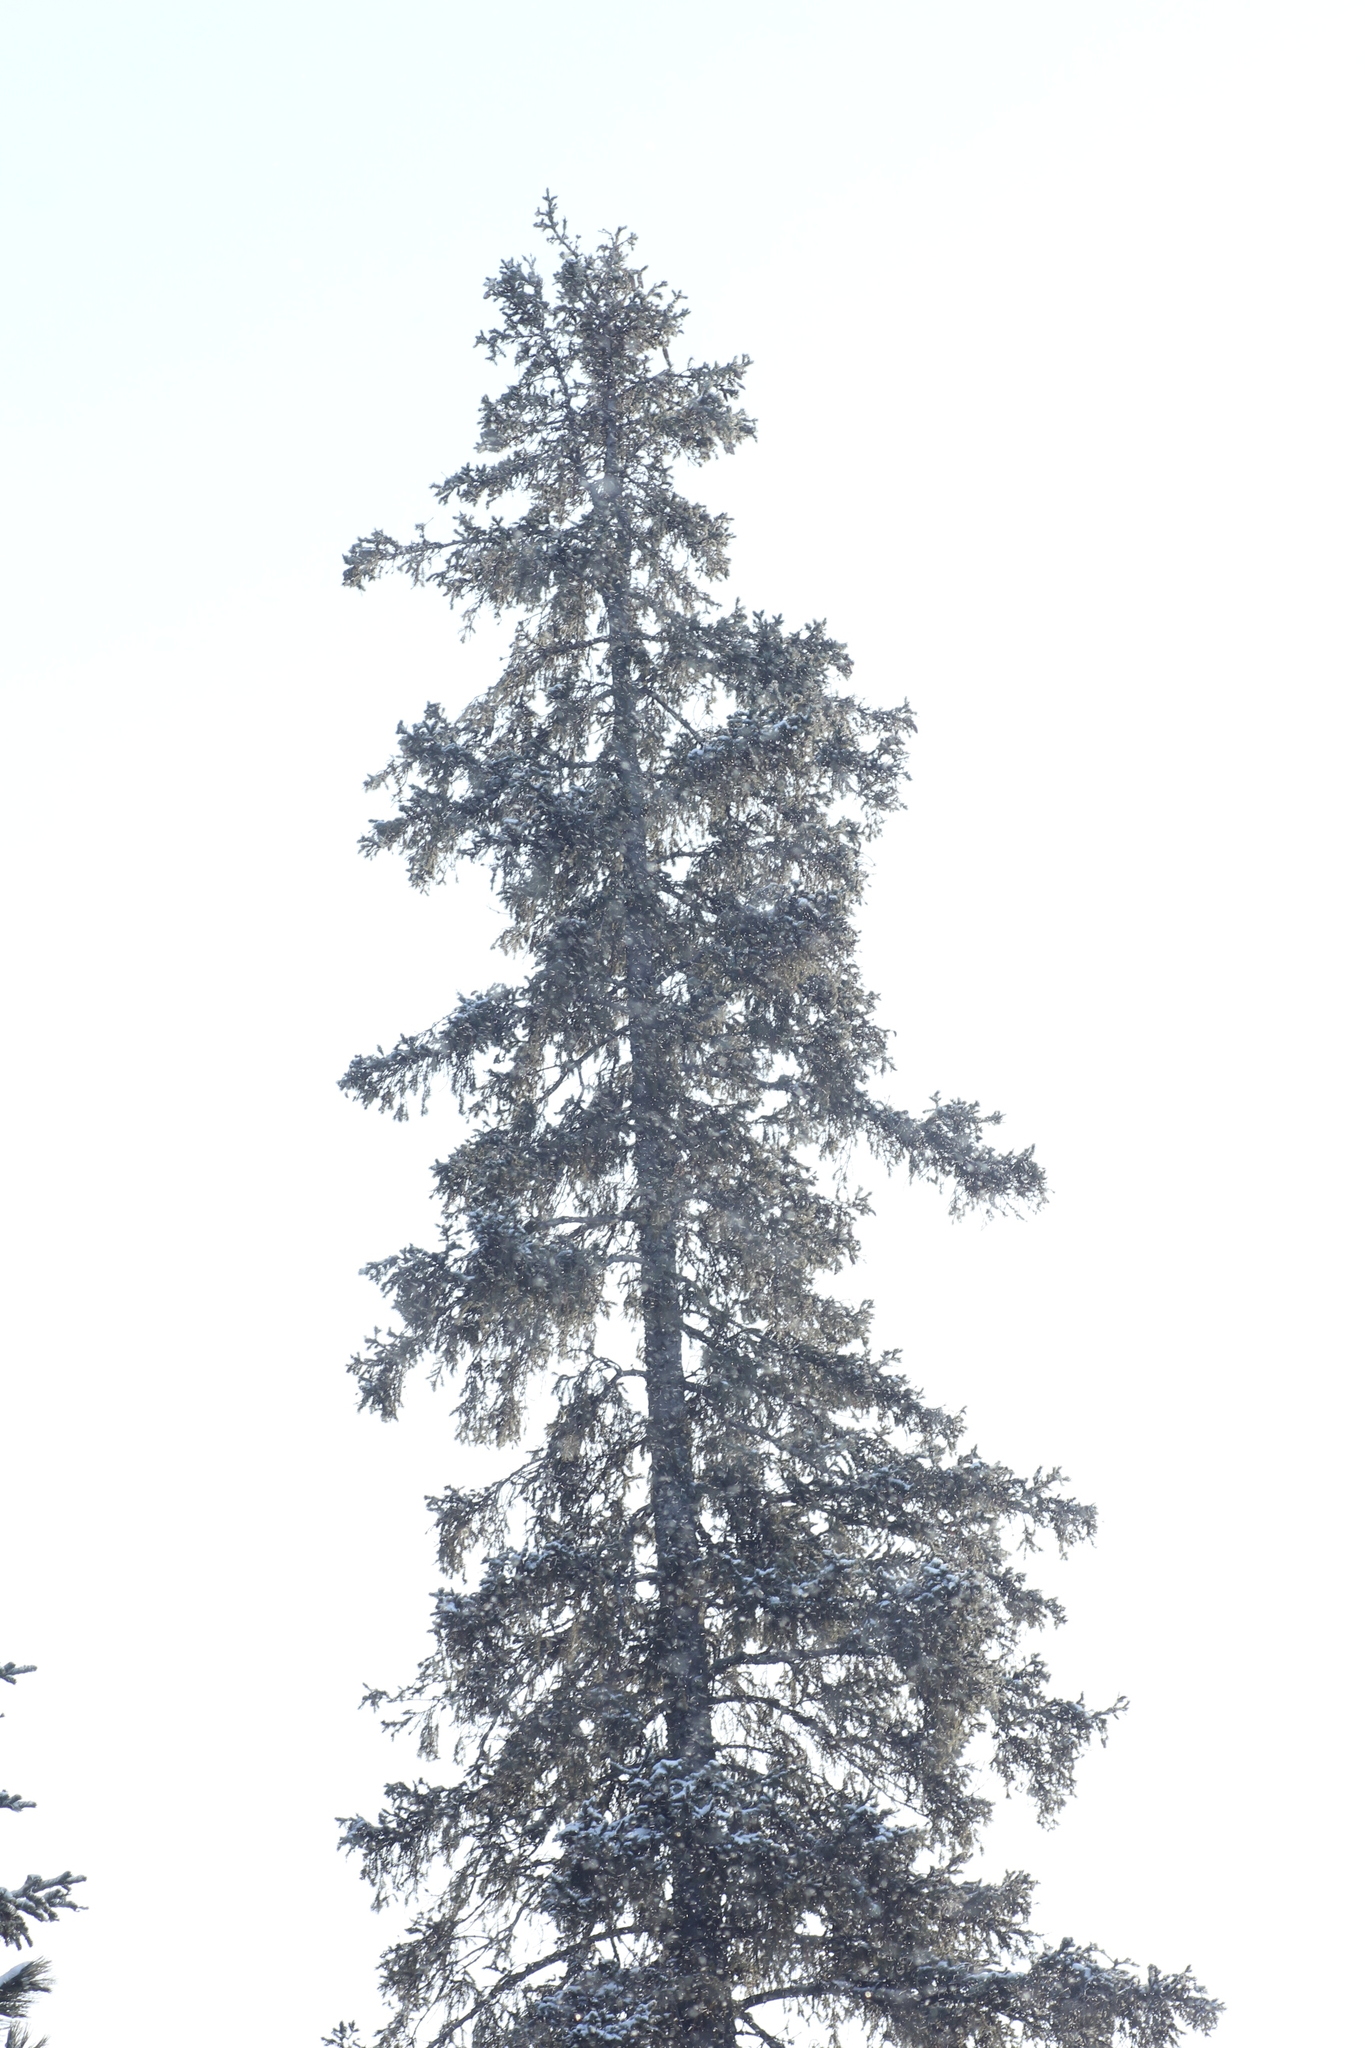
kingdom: Plantae
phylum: Tracheophyta
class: Pinopsida
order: Pinales
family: Pinaceae
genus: Picea
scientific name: Picea obovata
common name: Siberian spruce
